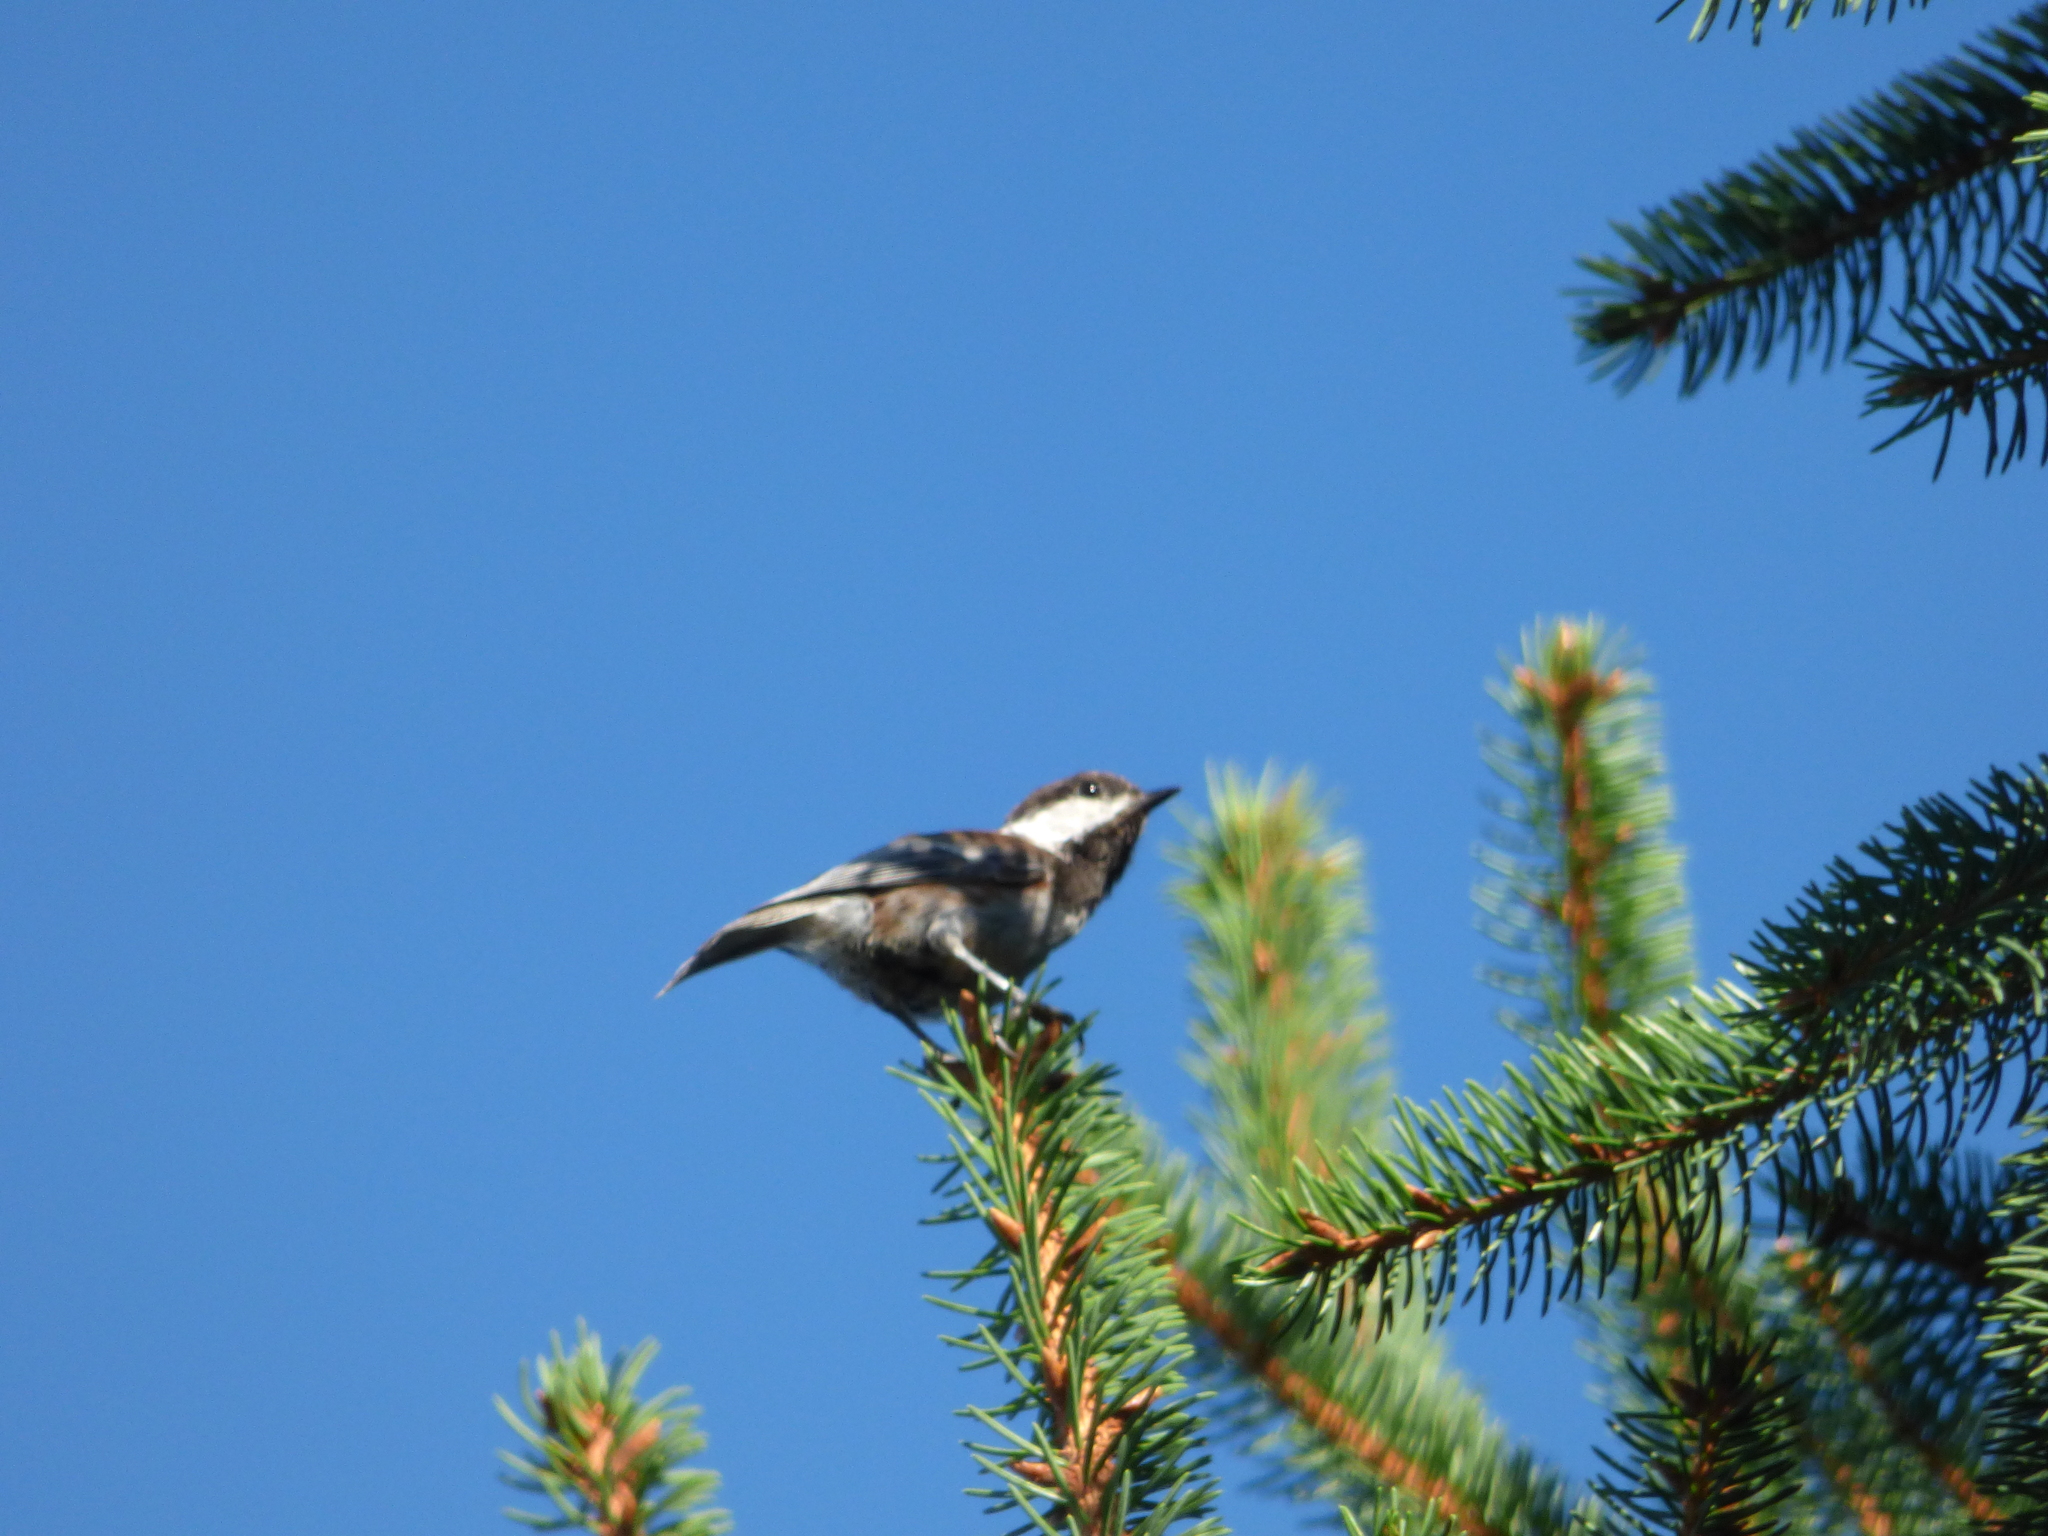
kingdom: Animalia
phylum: Chordata
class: Aves
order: Passeriformes
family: Paridae
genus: Poecile
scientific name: Poecile rufescens
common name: Chestnut-backed chickadee
